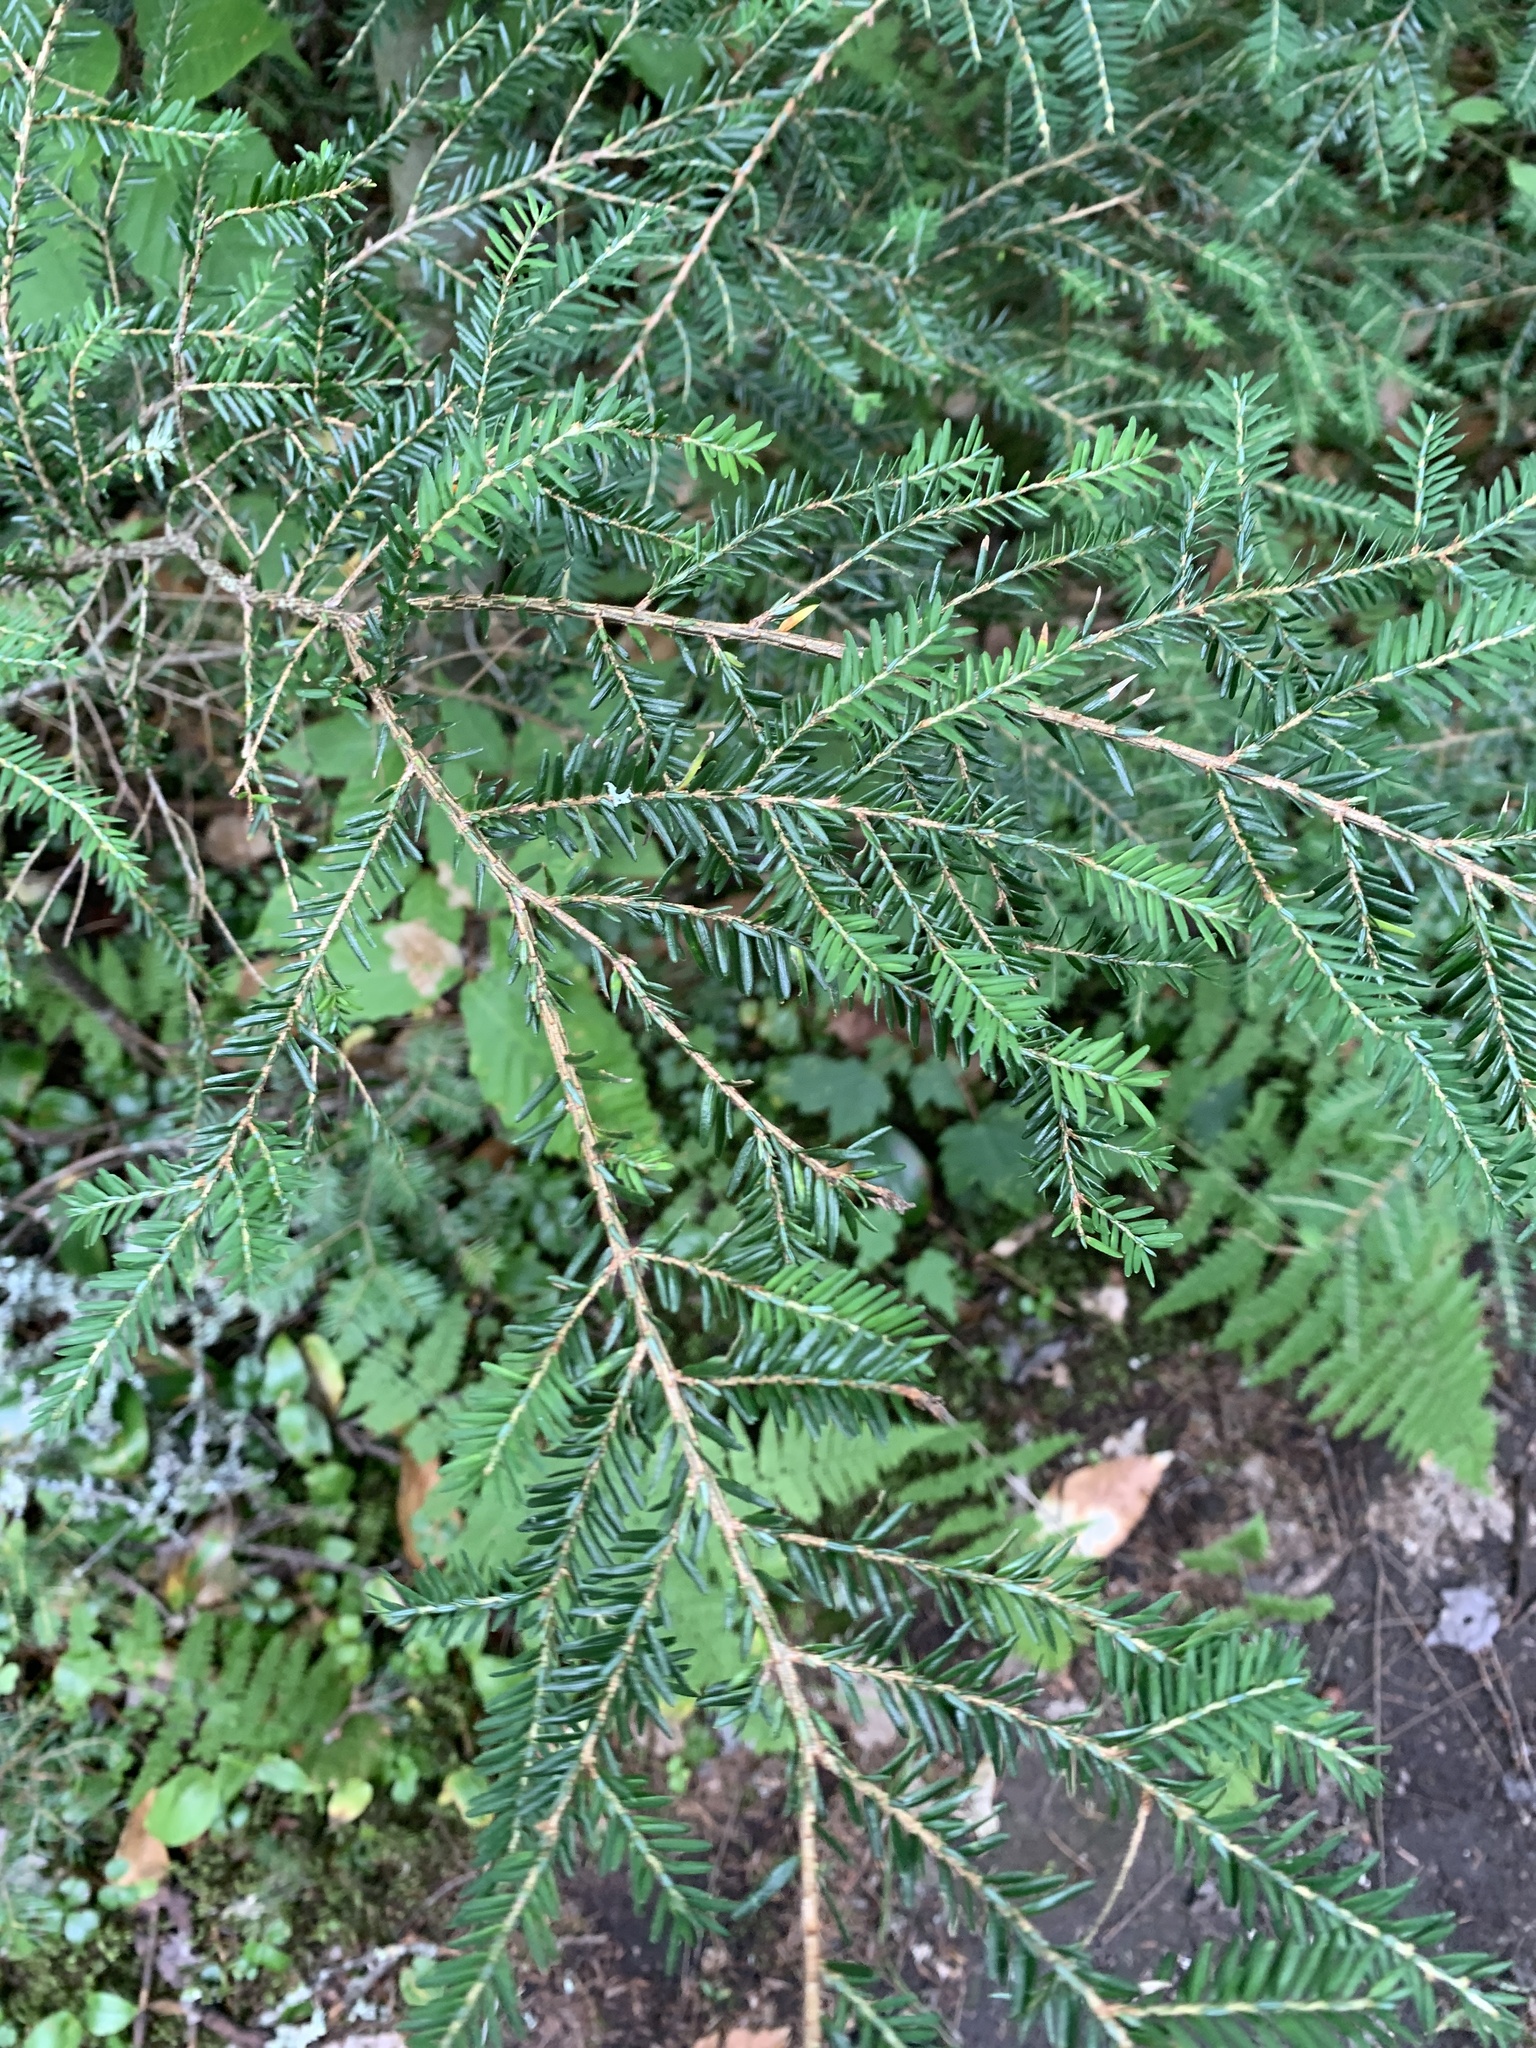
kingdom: Plantae
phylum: Tracheophyta
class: Pinopsida
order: Pinales
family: Pinaceae
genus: Tsuga
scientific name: Tsuga canadensis
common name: Eastern hemlock
